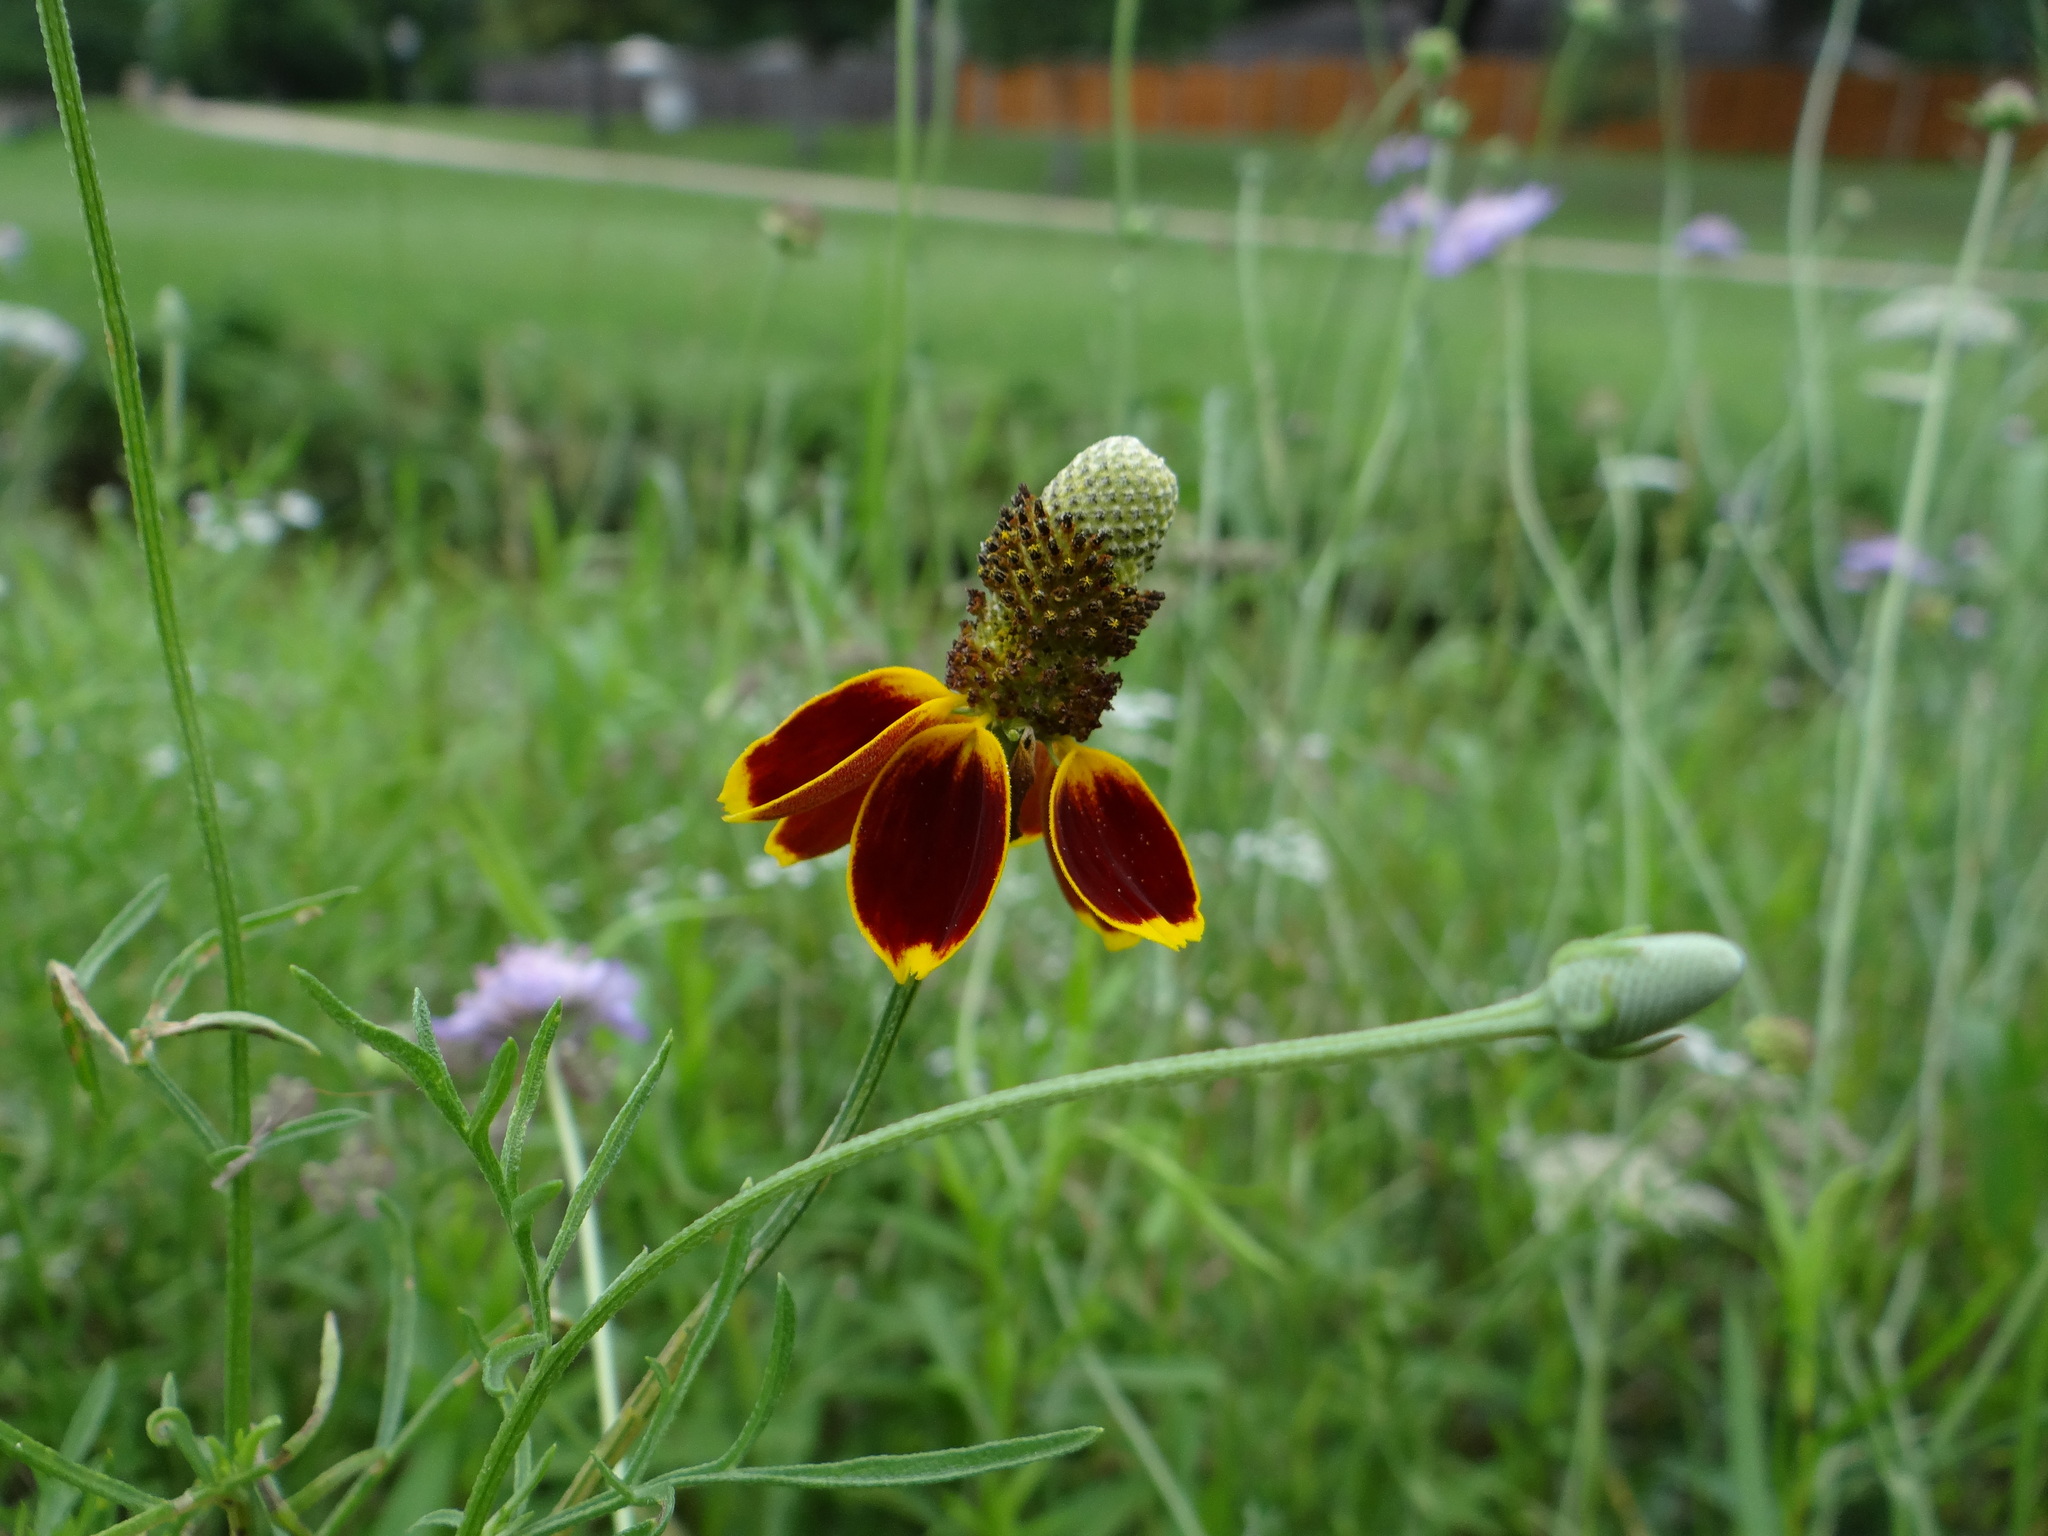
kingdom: Plantae
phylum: Tracheophyta
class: Magnoliopsida
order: Asterales
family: Asteraceae
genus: Ratibida
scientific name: Ratibida columnifera
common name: Prairie coneflower
